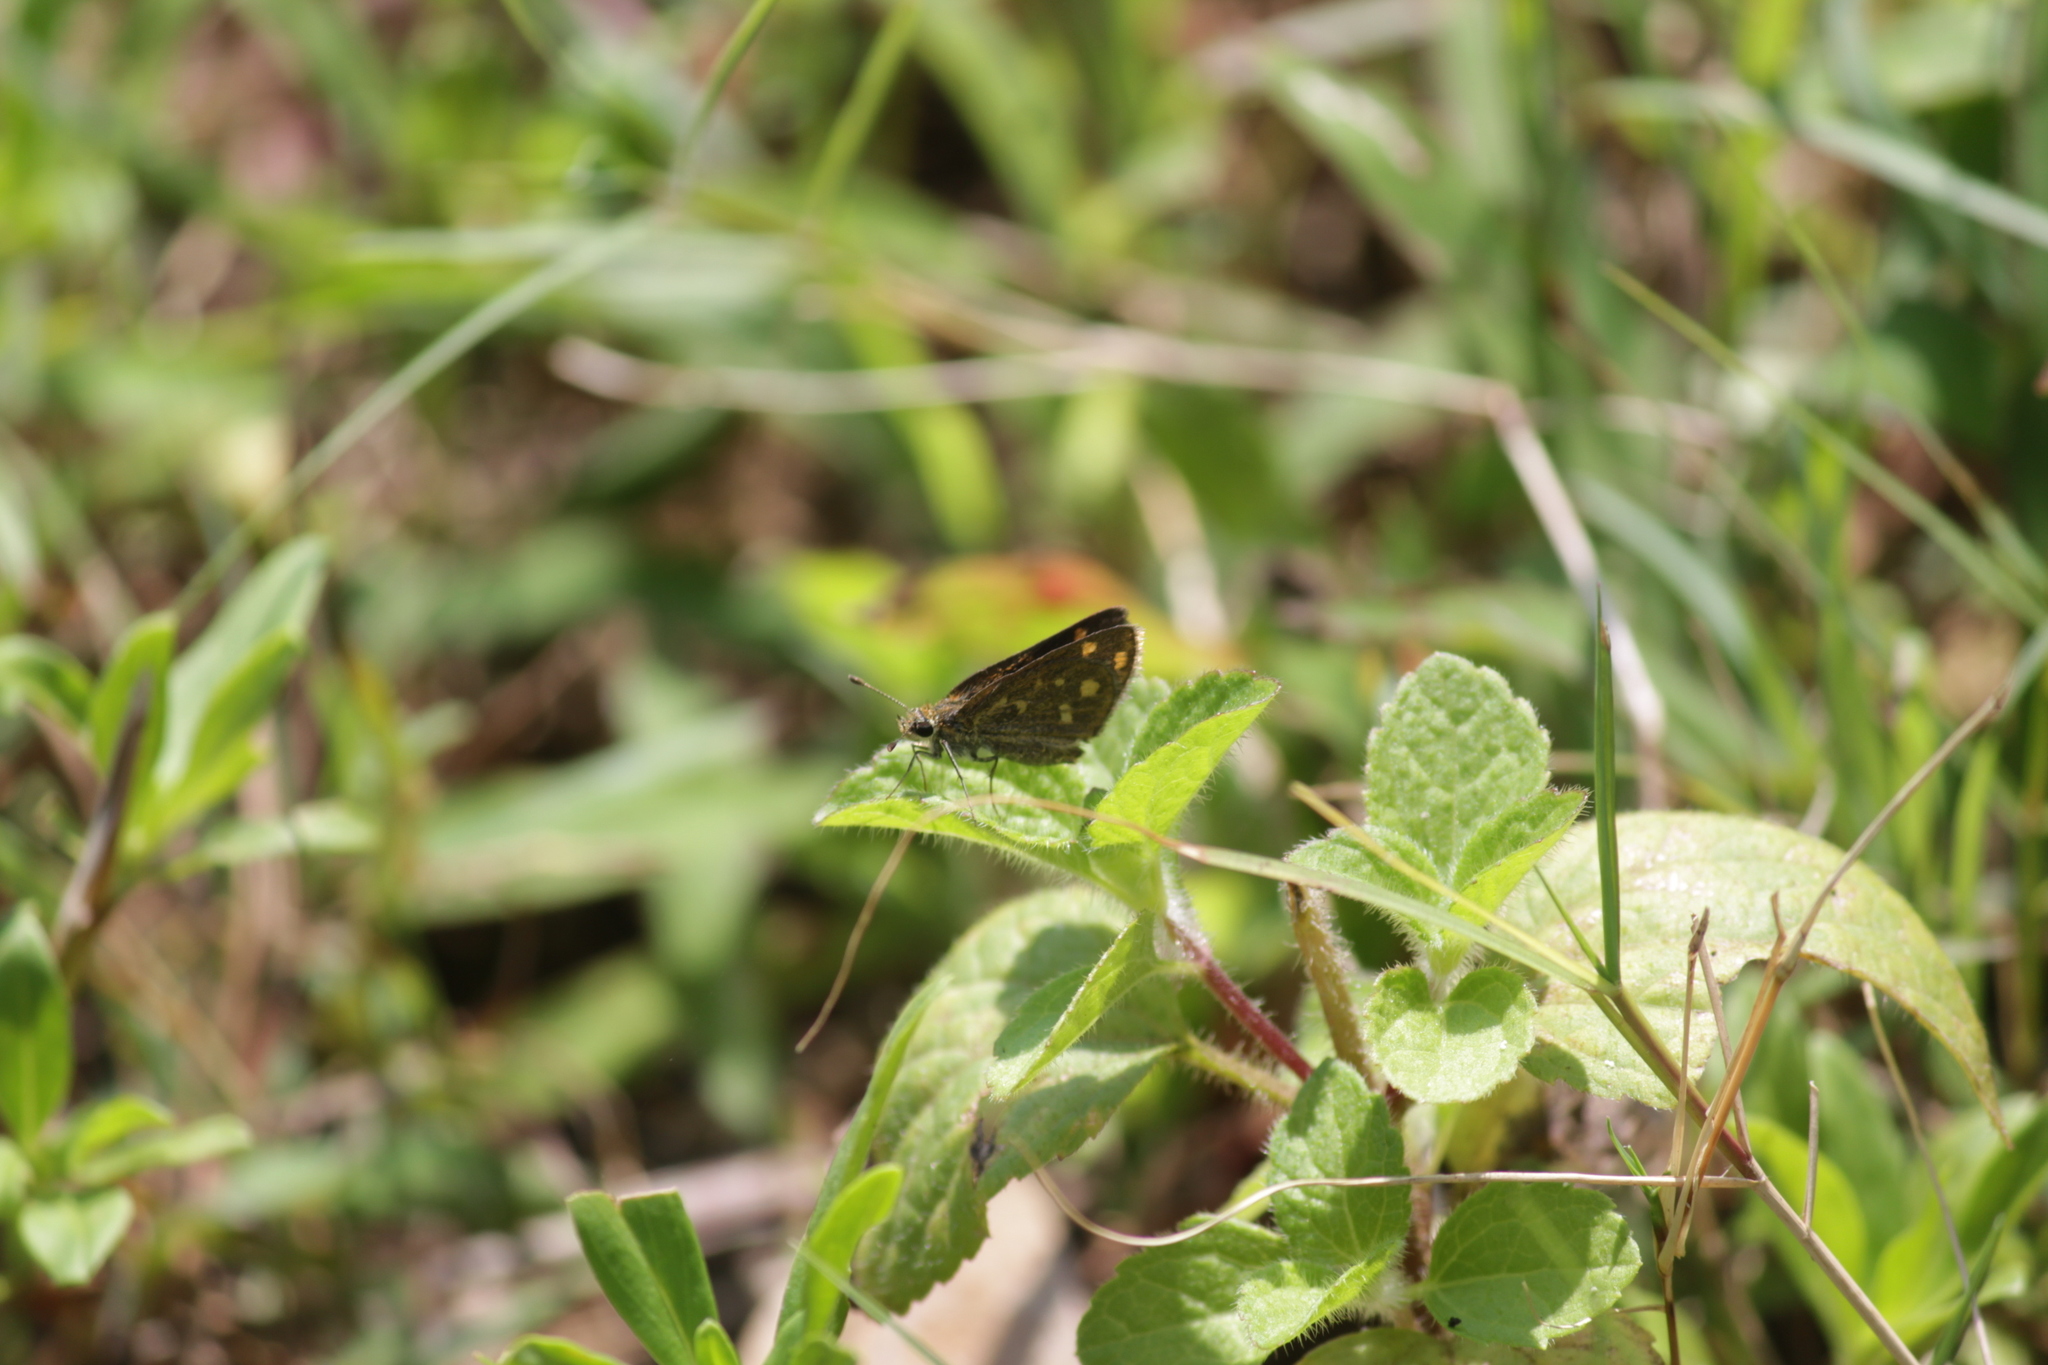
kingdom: Animalia
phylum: Arthropoda
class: Insecta
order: Lepidoptera
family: Hesperiidae
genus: Taractrocera
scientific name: Taractrocera ceramas
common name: Tamil grass dart
